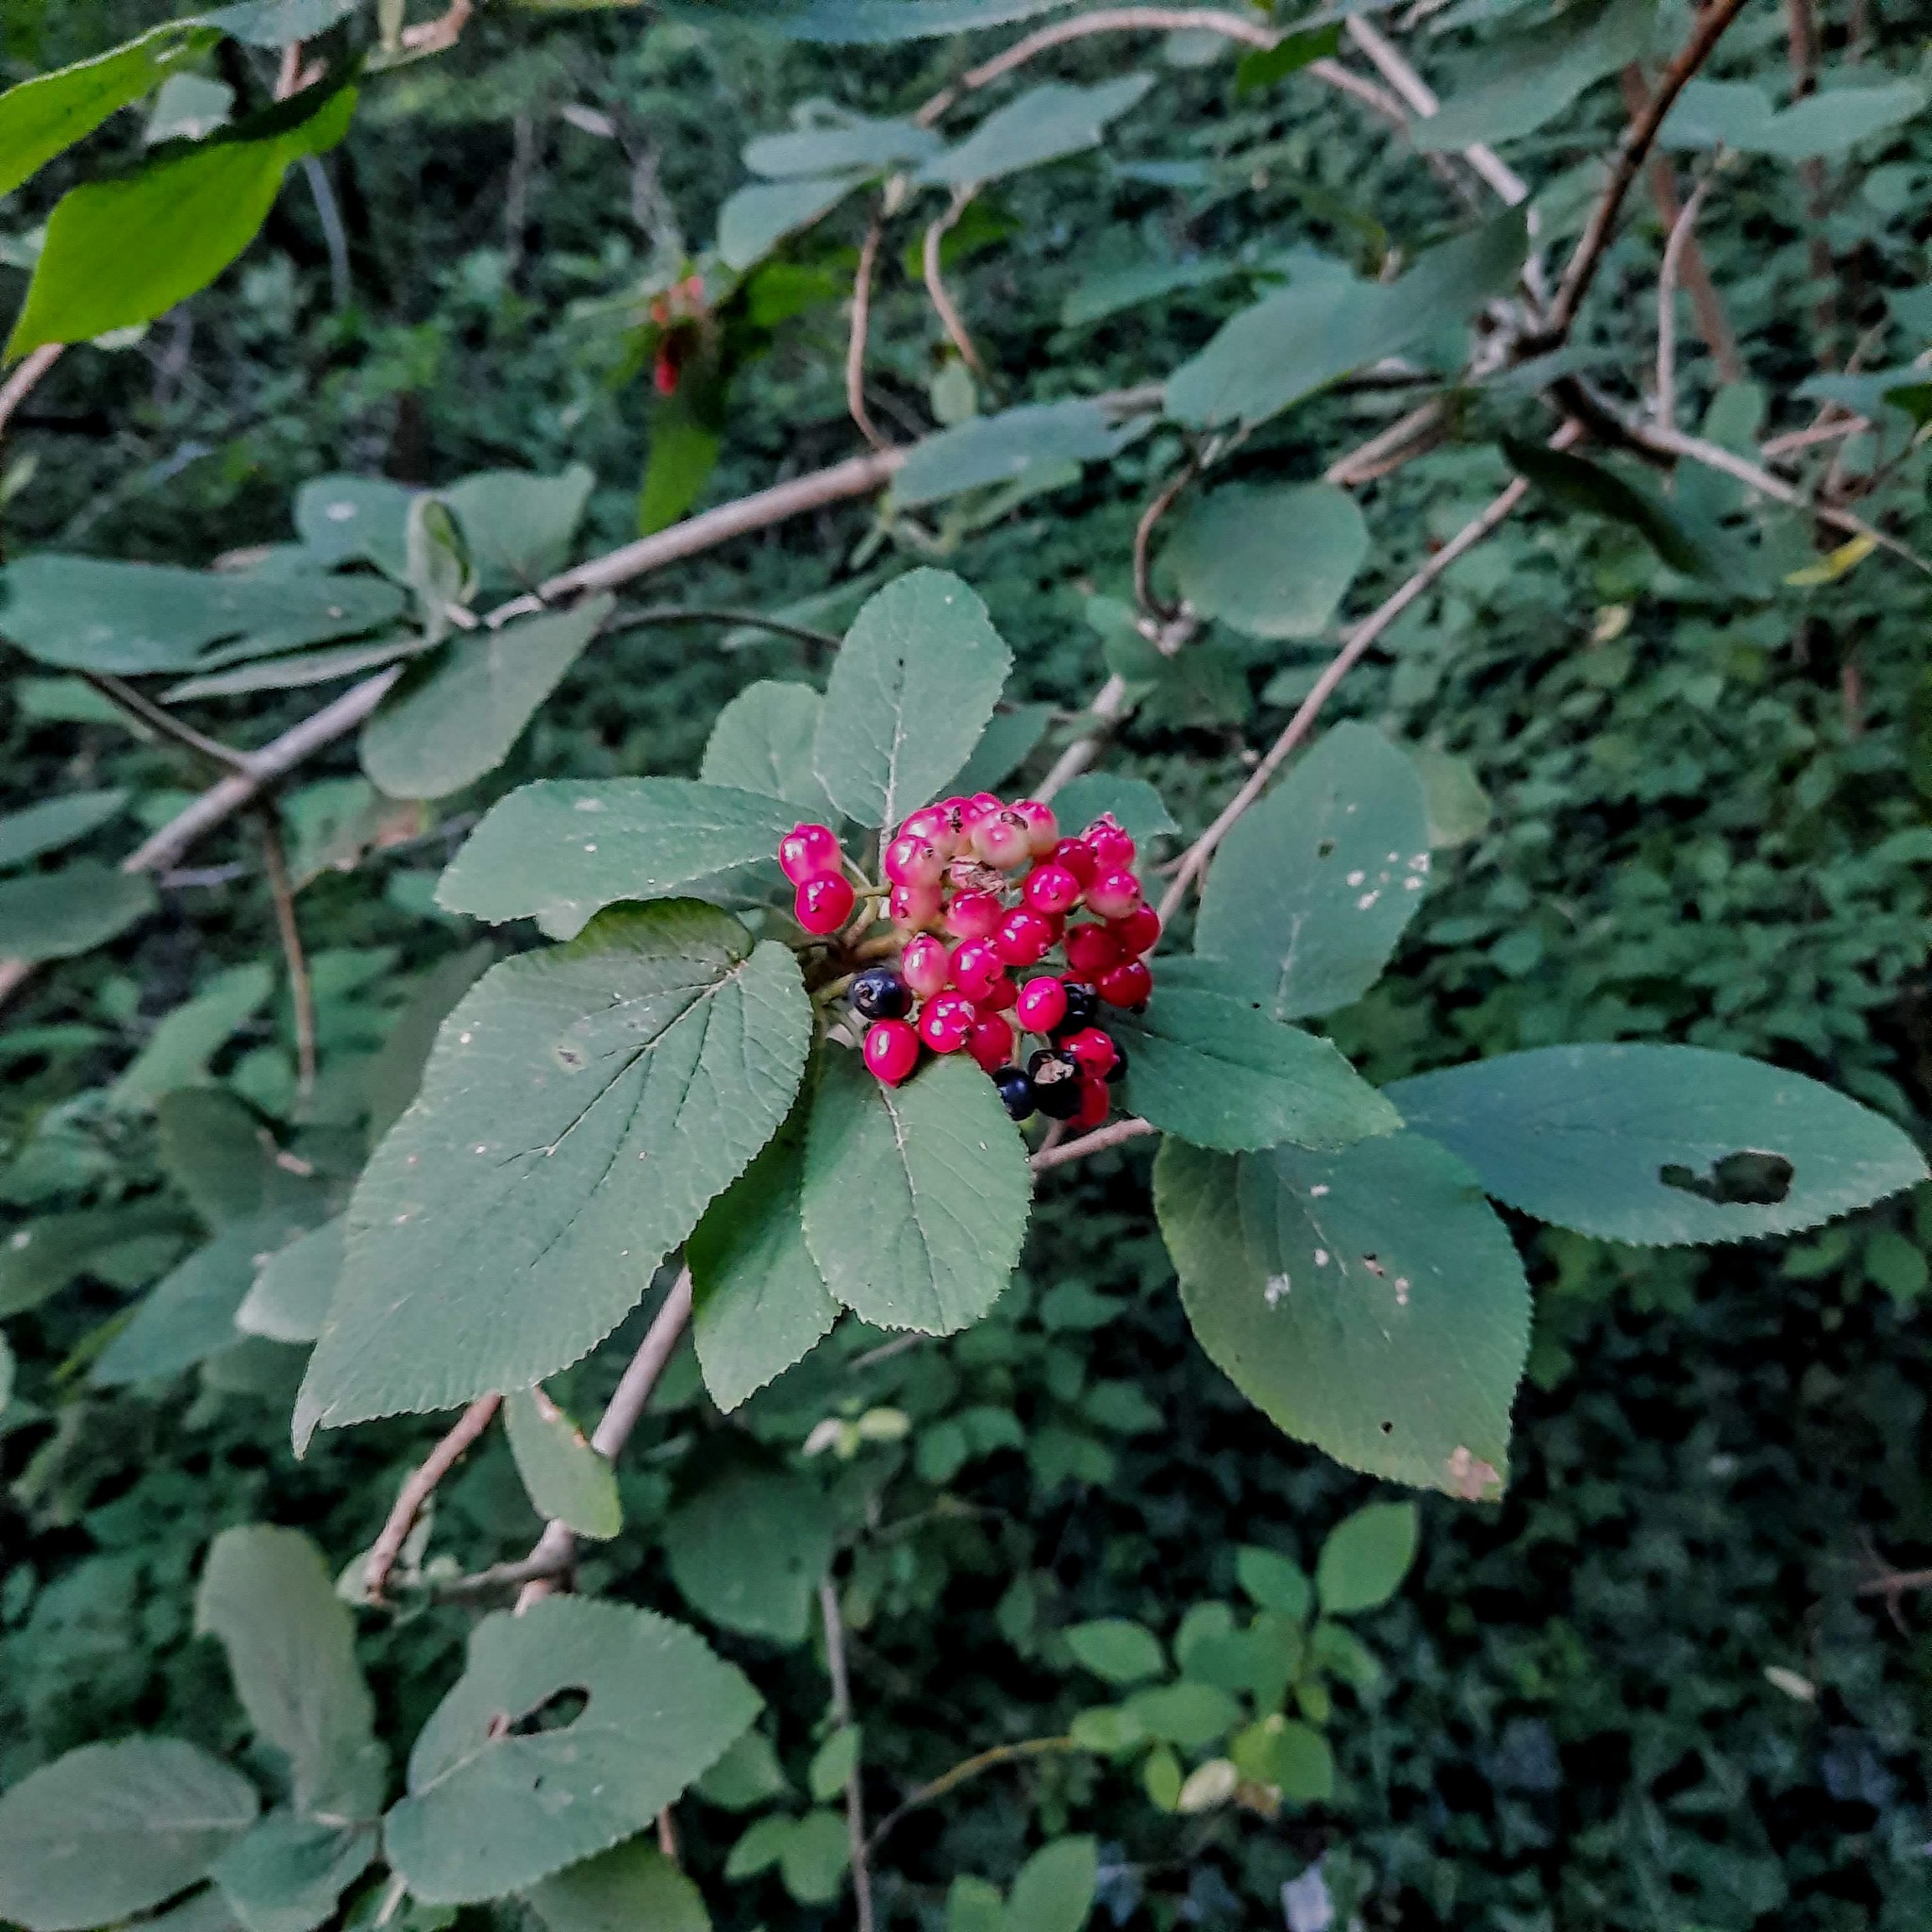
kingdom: Plantae
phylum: Tracheophyta
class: Magnoliopsida
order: Dipsacales
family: Viburnaceae
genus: Viburnum
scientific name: Viburnum lantana
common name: Wayfaring tree
